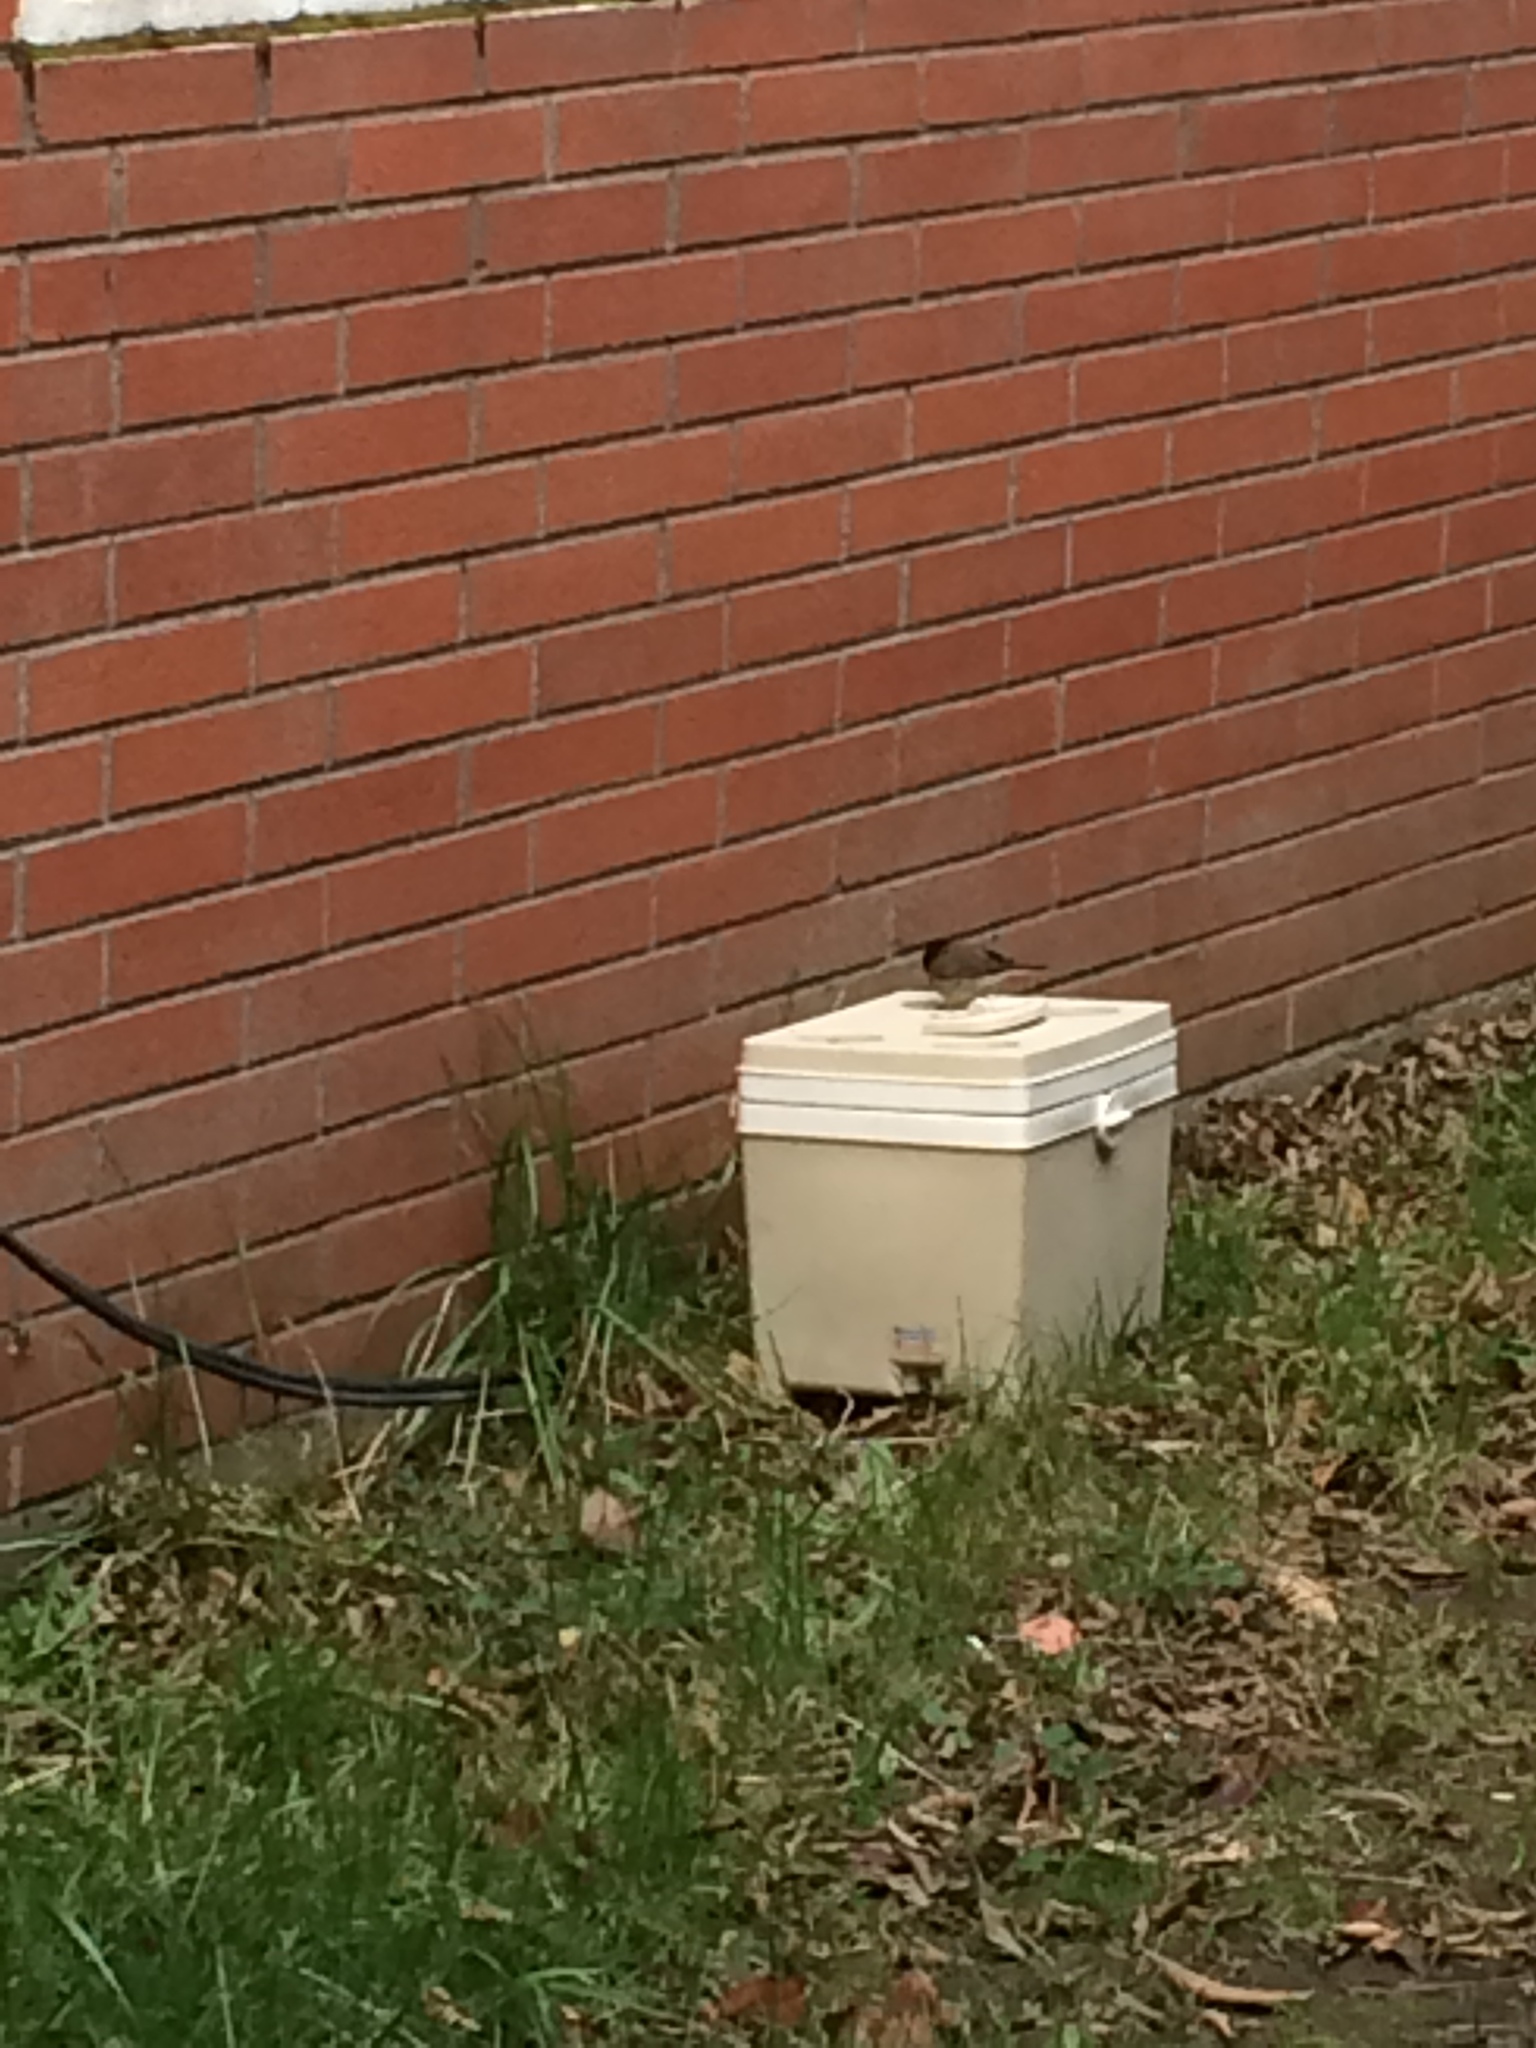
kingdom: Animalia
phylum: Chordata
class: Aves
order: Passeriformes
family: Passerellidae
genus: Junco
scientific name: Junco hyemalis
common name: Dark-eyed junco
